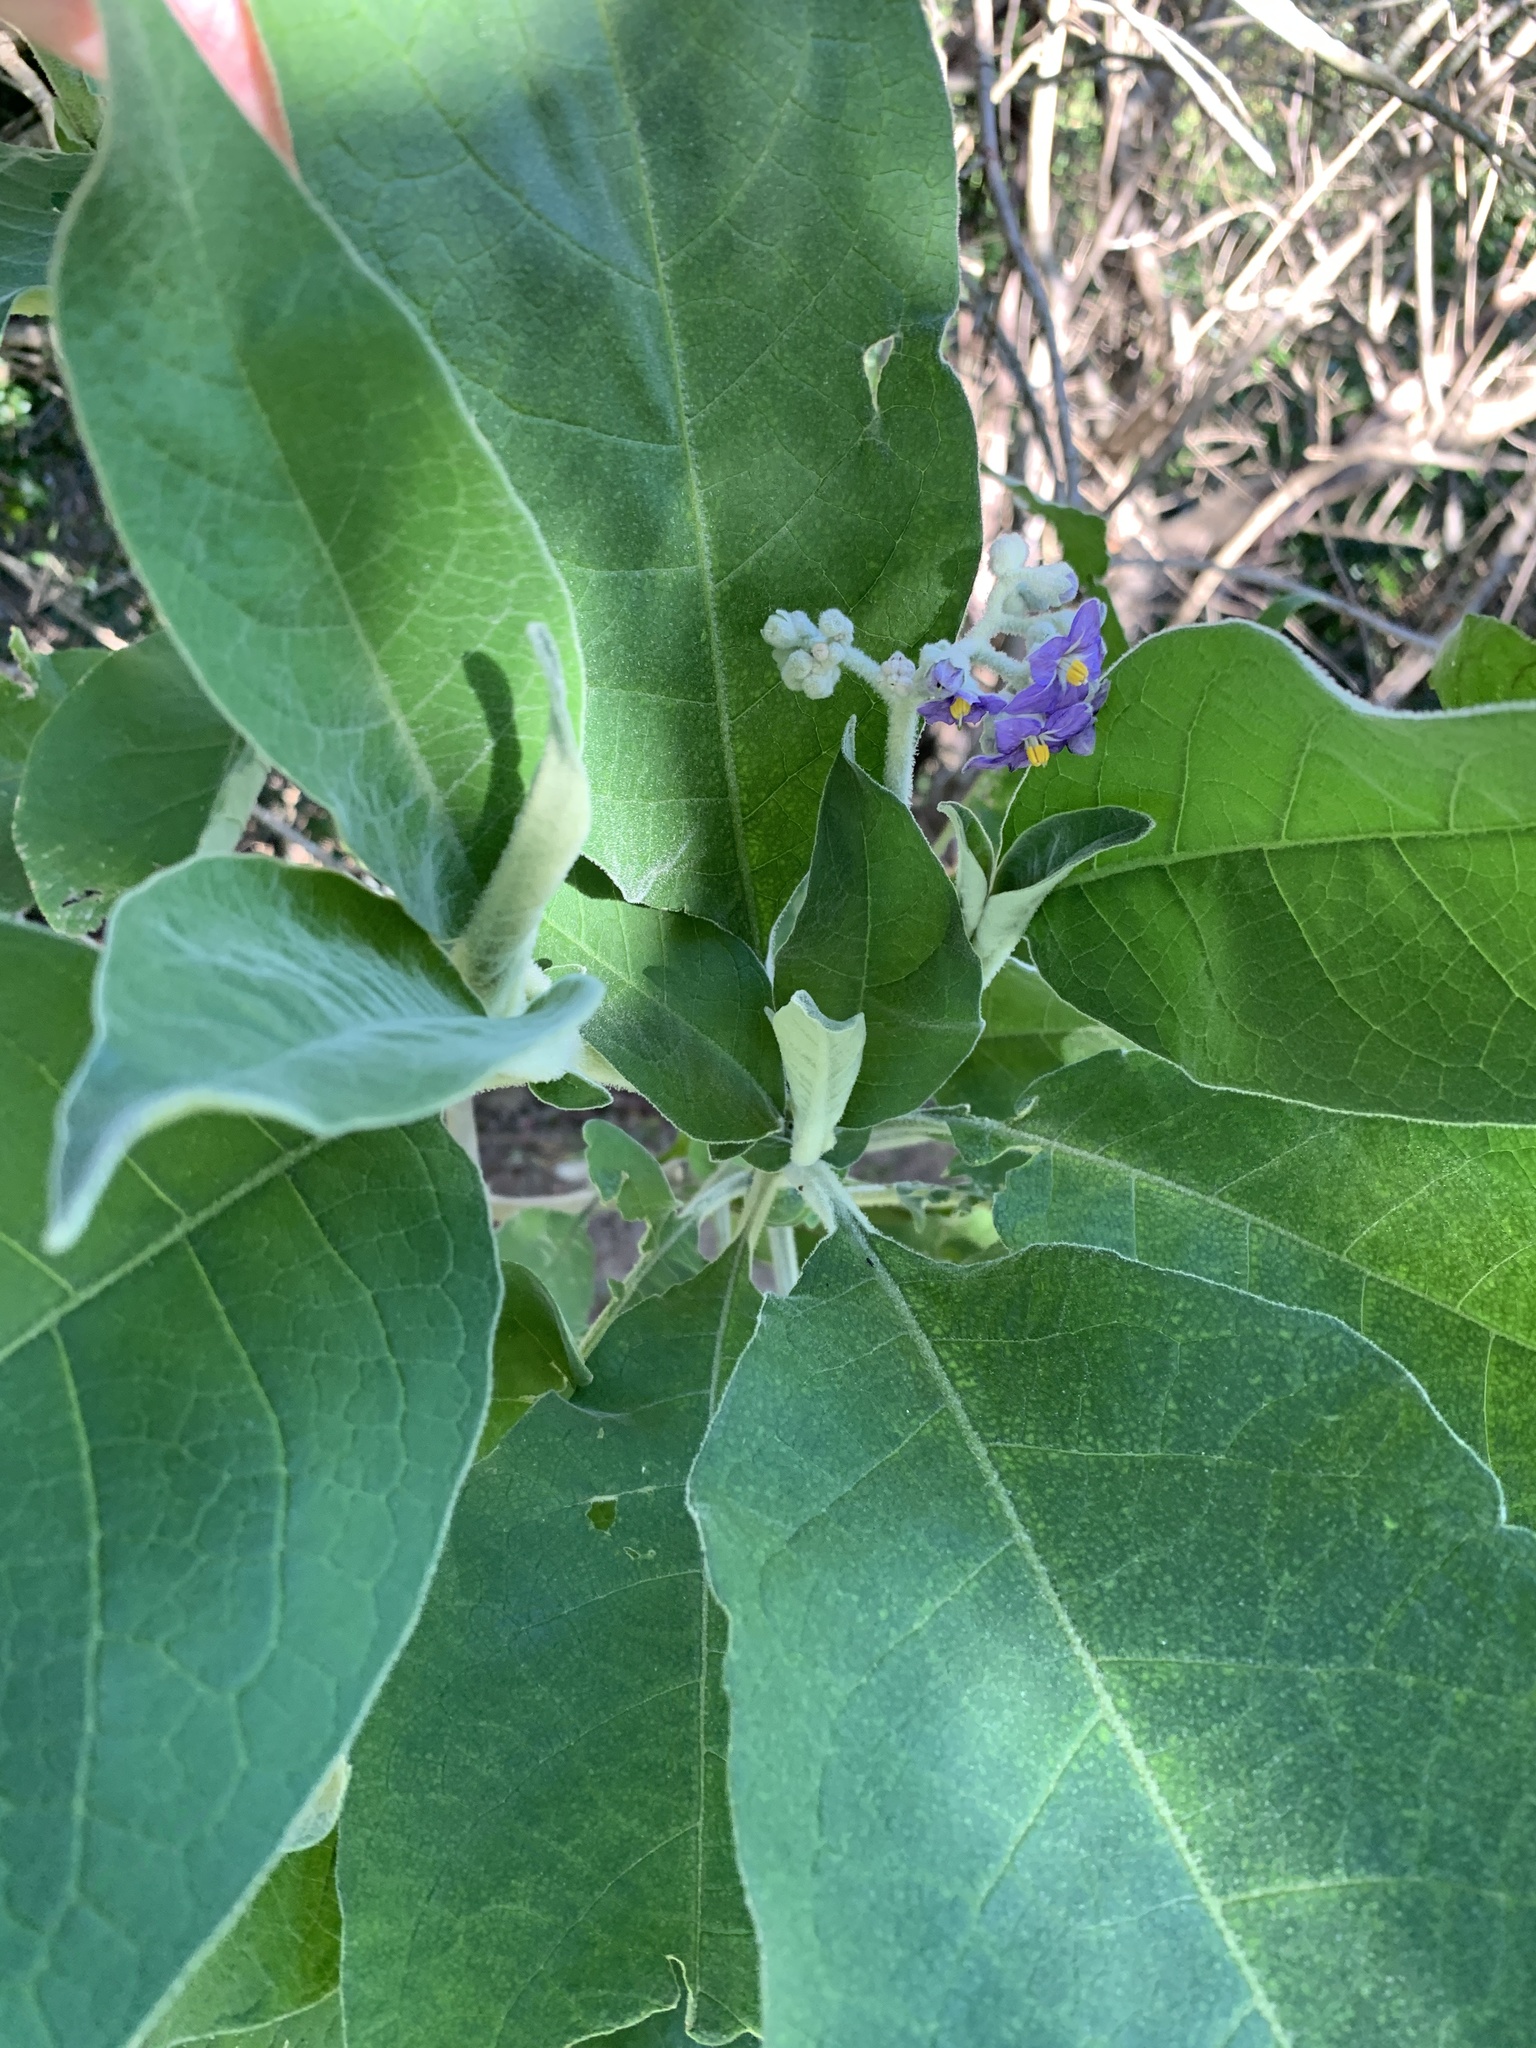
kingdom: Plantae
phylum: Tracheophyta
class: Magnoliopsida
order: Solanales
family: Solanaceae
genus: Solanum
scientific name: Solanum mauritianum
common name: Earleaf nightshade
